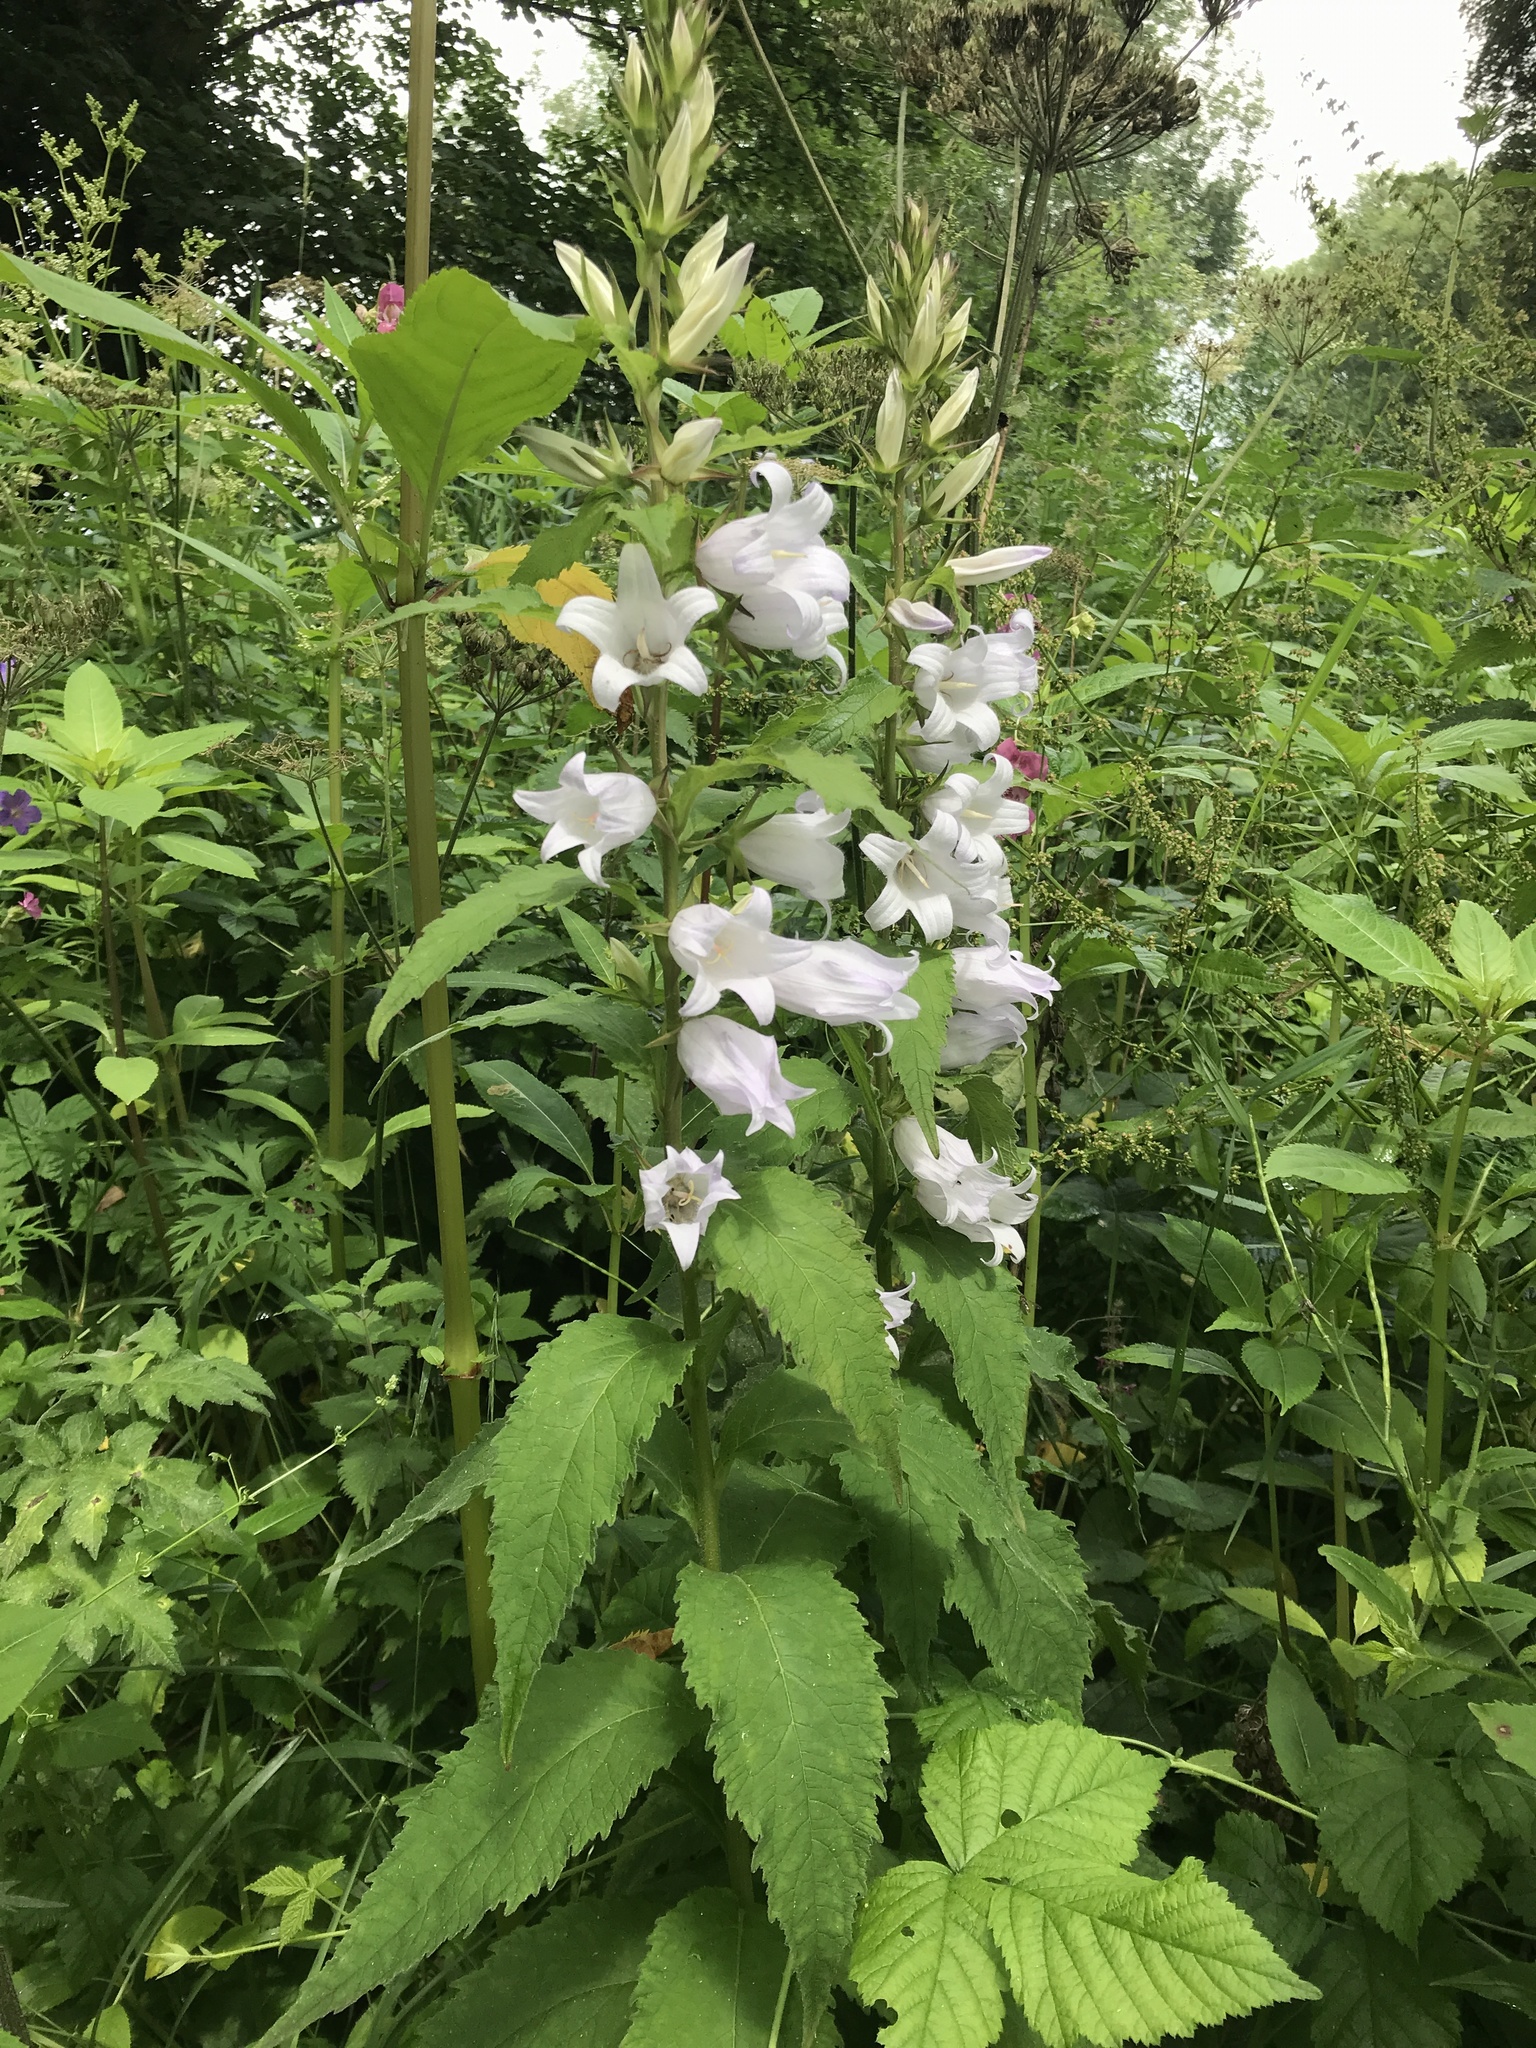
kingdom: Plantae
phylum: Tracheophyta
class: Magnoliopsida
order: Asterales
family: Campanulaceae
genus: Campanula
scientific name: Campanula latifolia
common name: Giant bellflower
